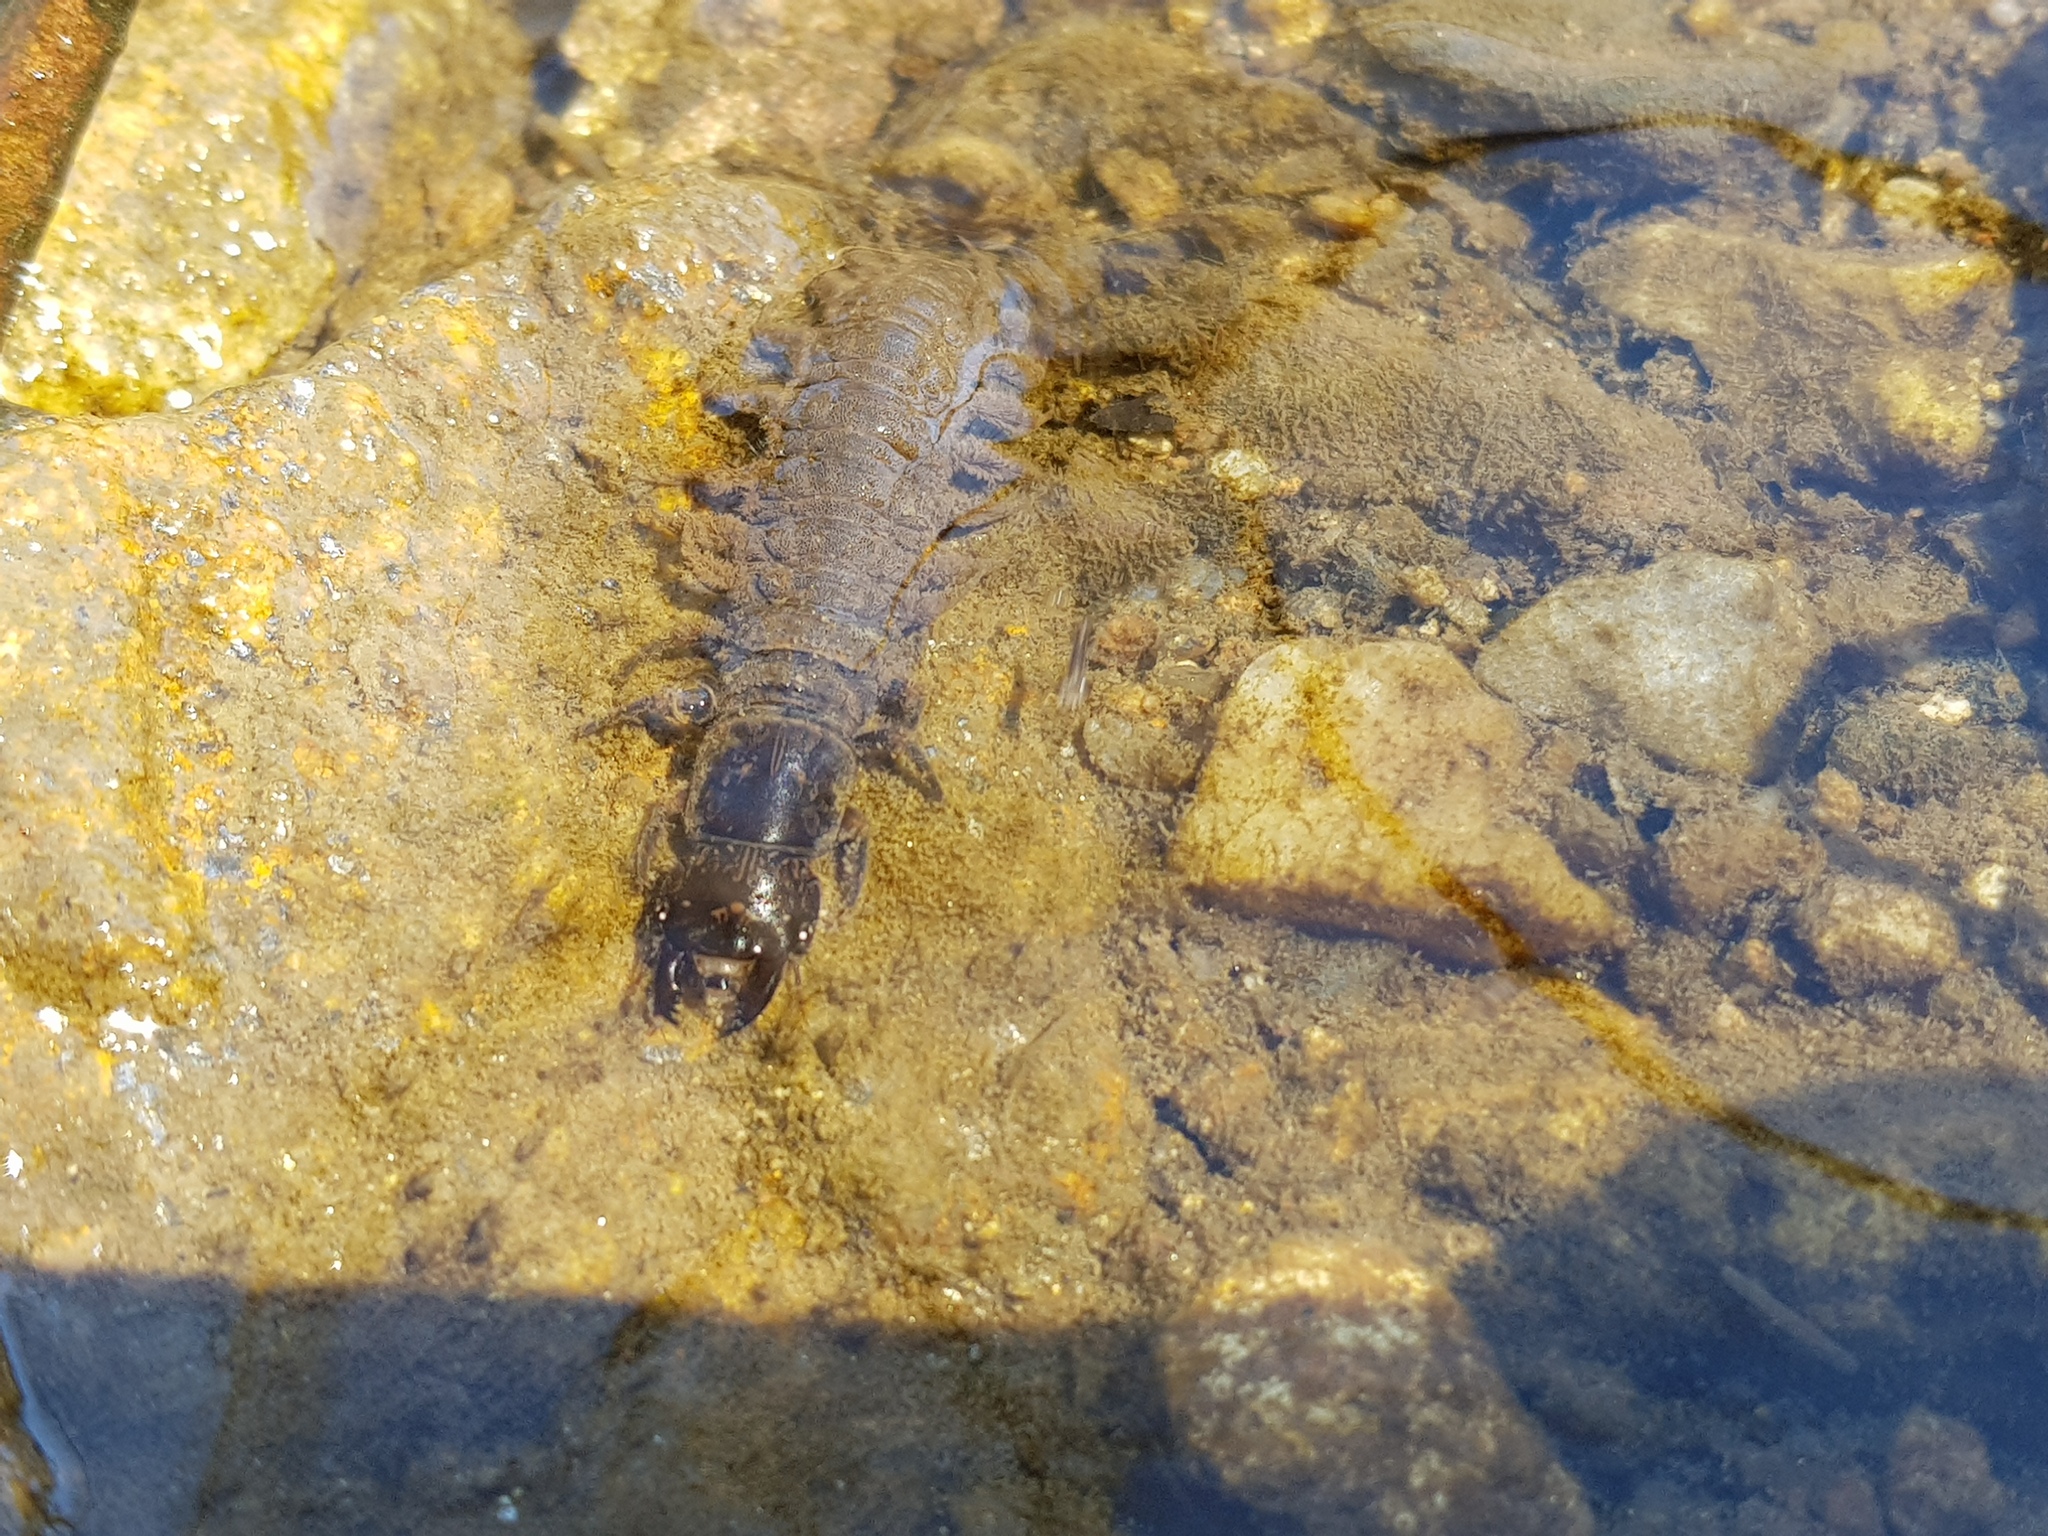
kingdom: Animalia
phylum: Arthropoda
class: Insecta
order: Megaloptera
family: Corydalidae
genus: Corydalus
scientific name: Corydalus cornutus
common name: Dobsonfly
